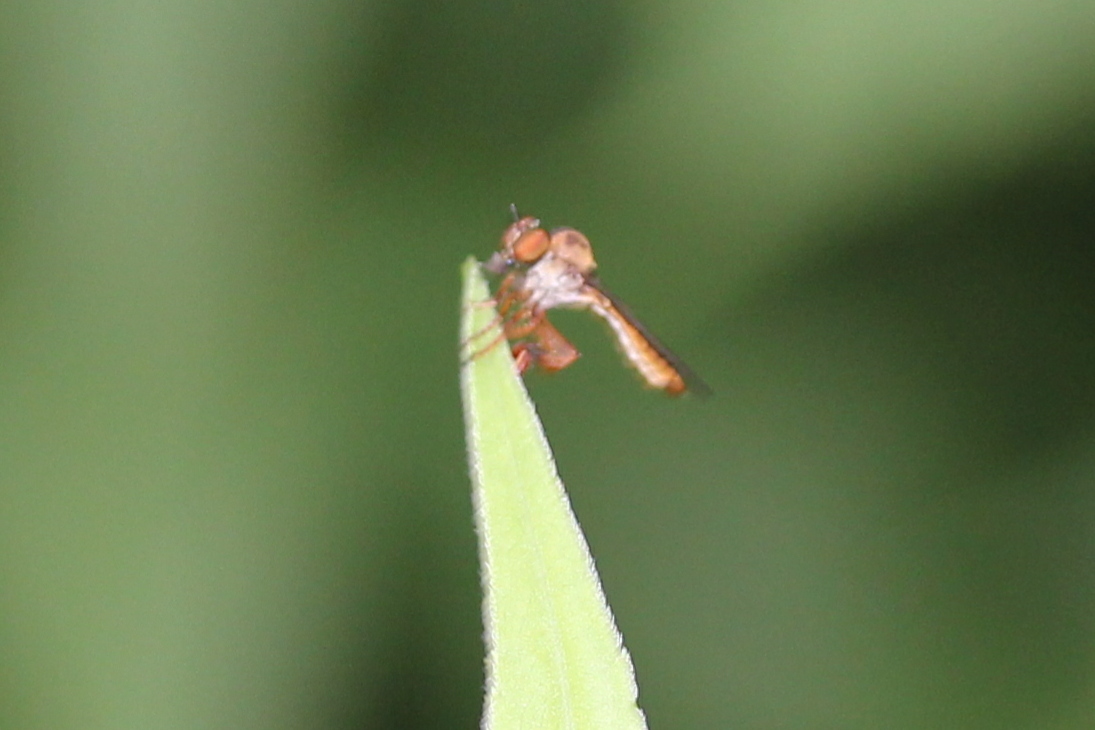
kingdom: Animalia
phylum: Arthropoda
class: Insecta
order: Diptera
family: Asilidae
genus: Holcocephala
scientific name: Holcocephala abdominalis
